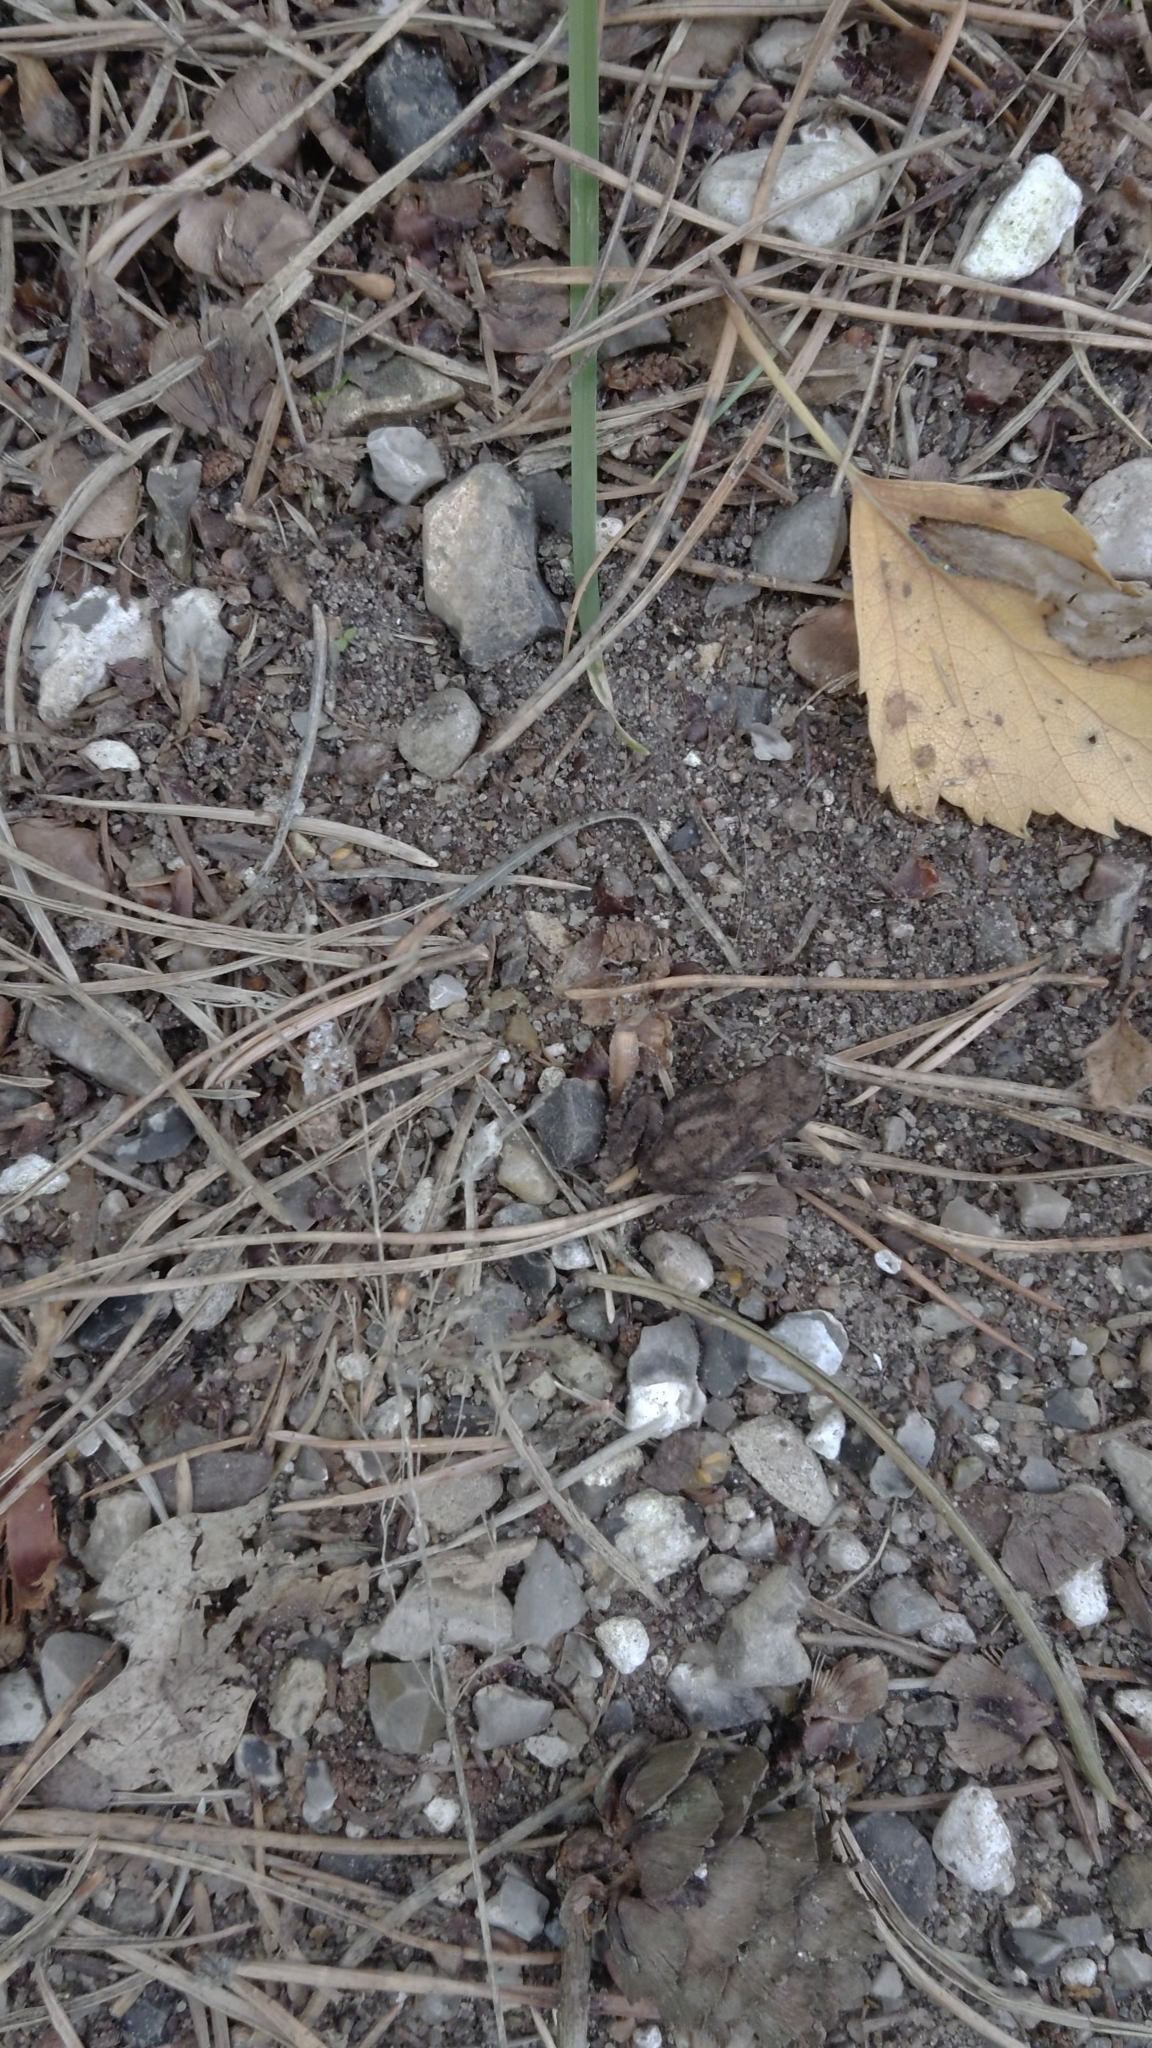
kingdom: Animalia
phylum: Chordata
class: Amphibia
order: Anura
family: Bufonidae
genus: Bufo
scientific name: Bufo bufo
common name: Common toad
